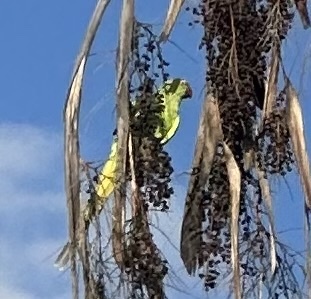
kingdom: Animalia
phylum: Chordata
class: Aves
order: Psittaciformes
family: Psittacidae
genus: Psittacula
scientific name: Psittacula krameri
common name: Rose-ringed parakeet
